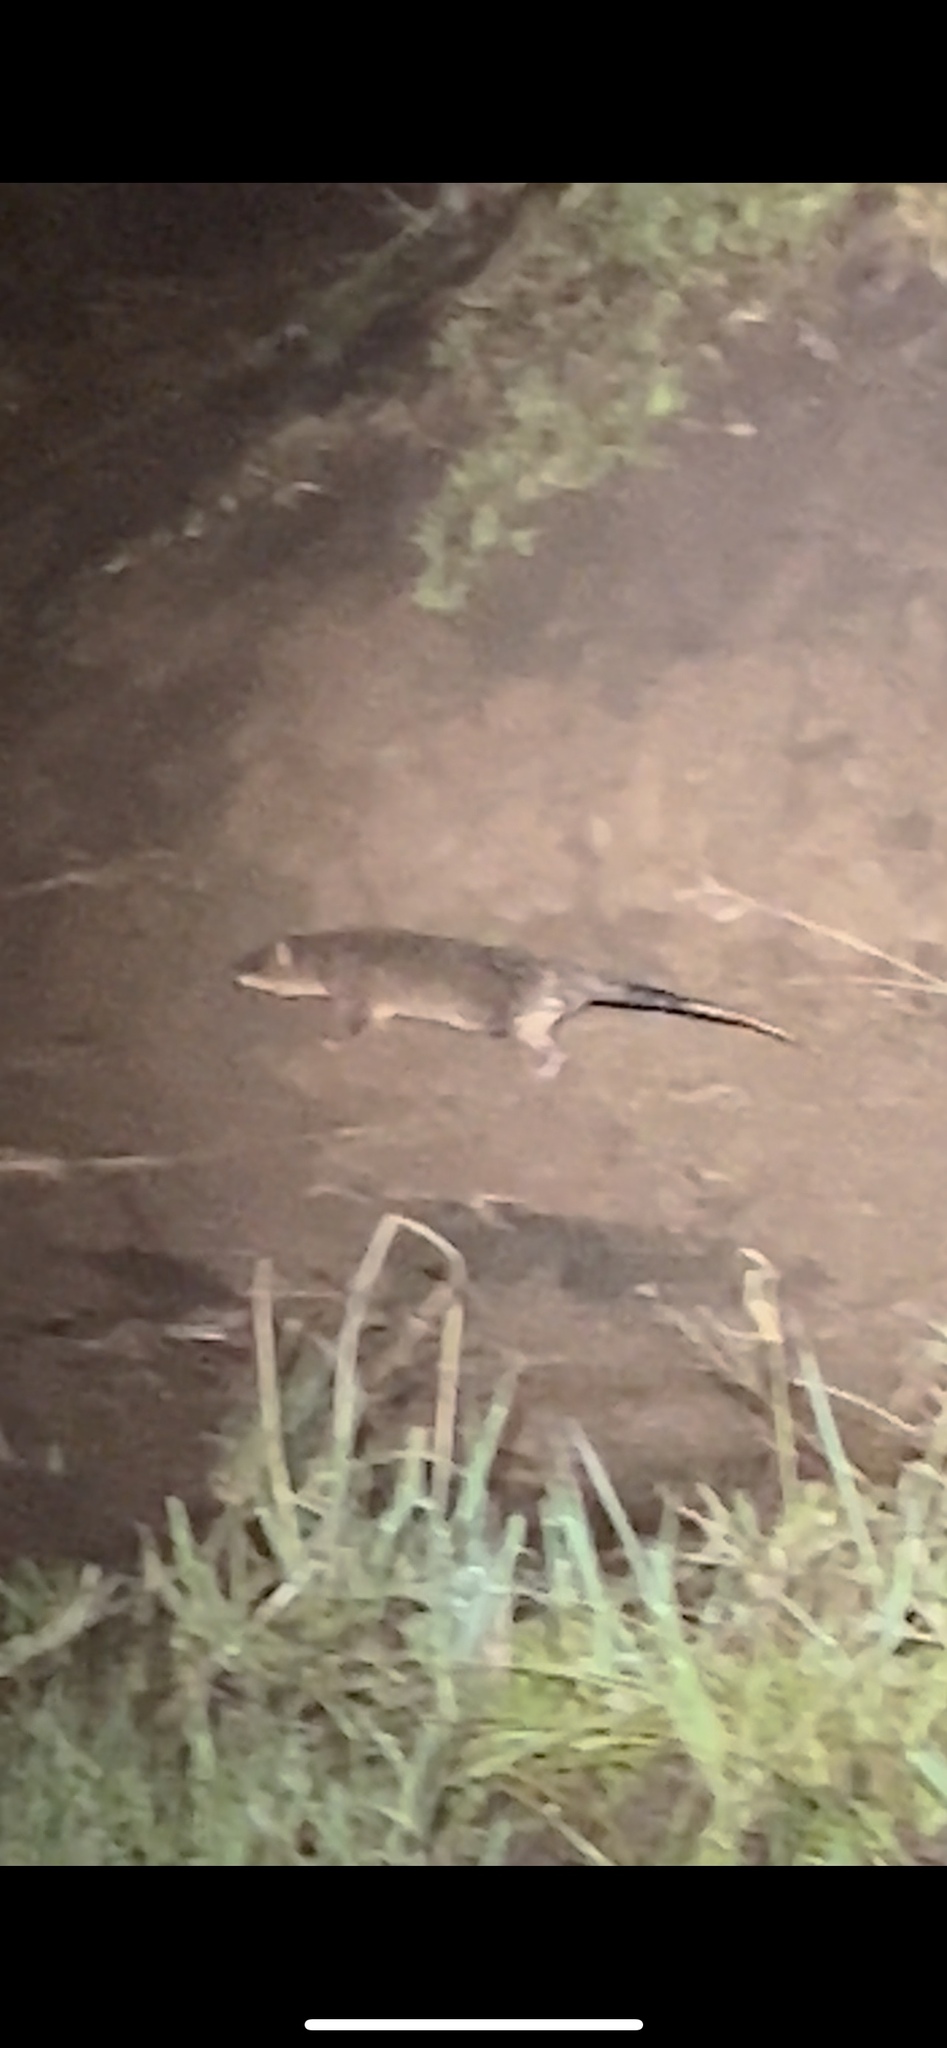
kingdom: Animalia
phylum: Chordata
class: Mammalia
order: Didelphimorphia
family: Didelphidae
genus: Lutreolina
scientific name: Lutreolina crassicaudata
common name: Lutrine opossum
